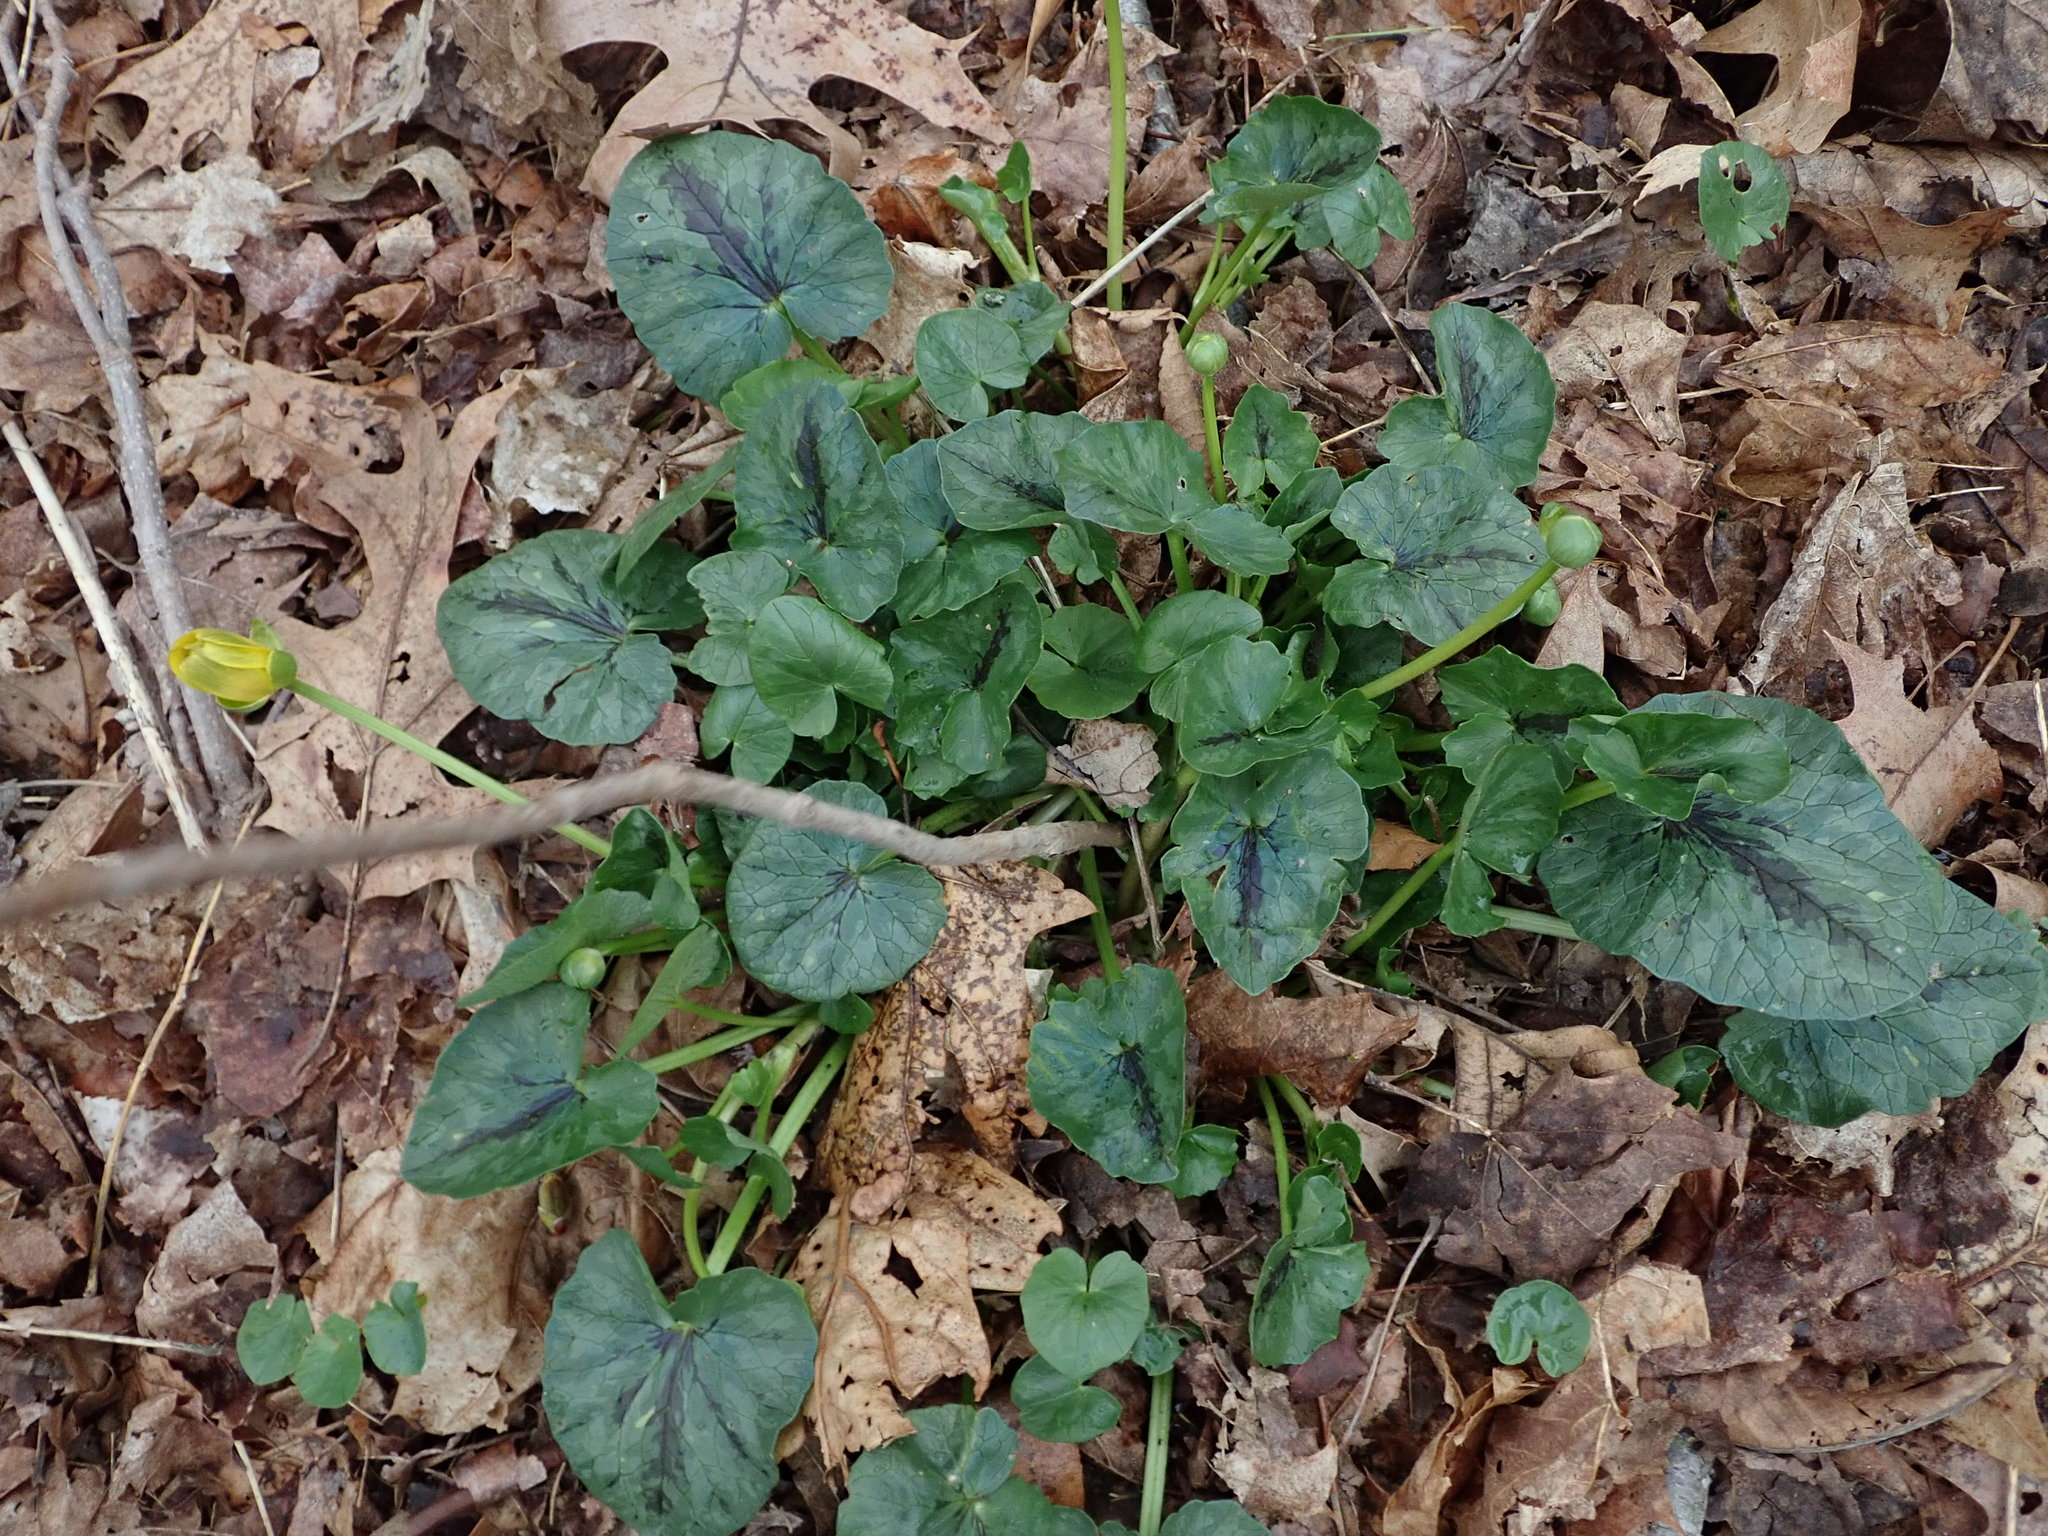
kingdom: Plantae
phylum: Tracheophyta
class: Magnoliopsida
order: Ranunculales
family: Ranunculaceae
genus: Ficaria
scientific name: Ficaria verna
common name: Lesser celandine
